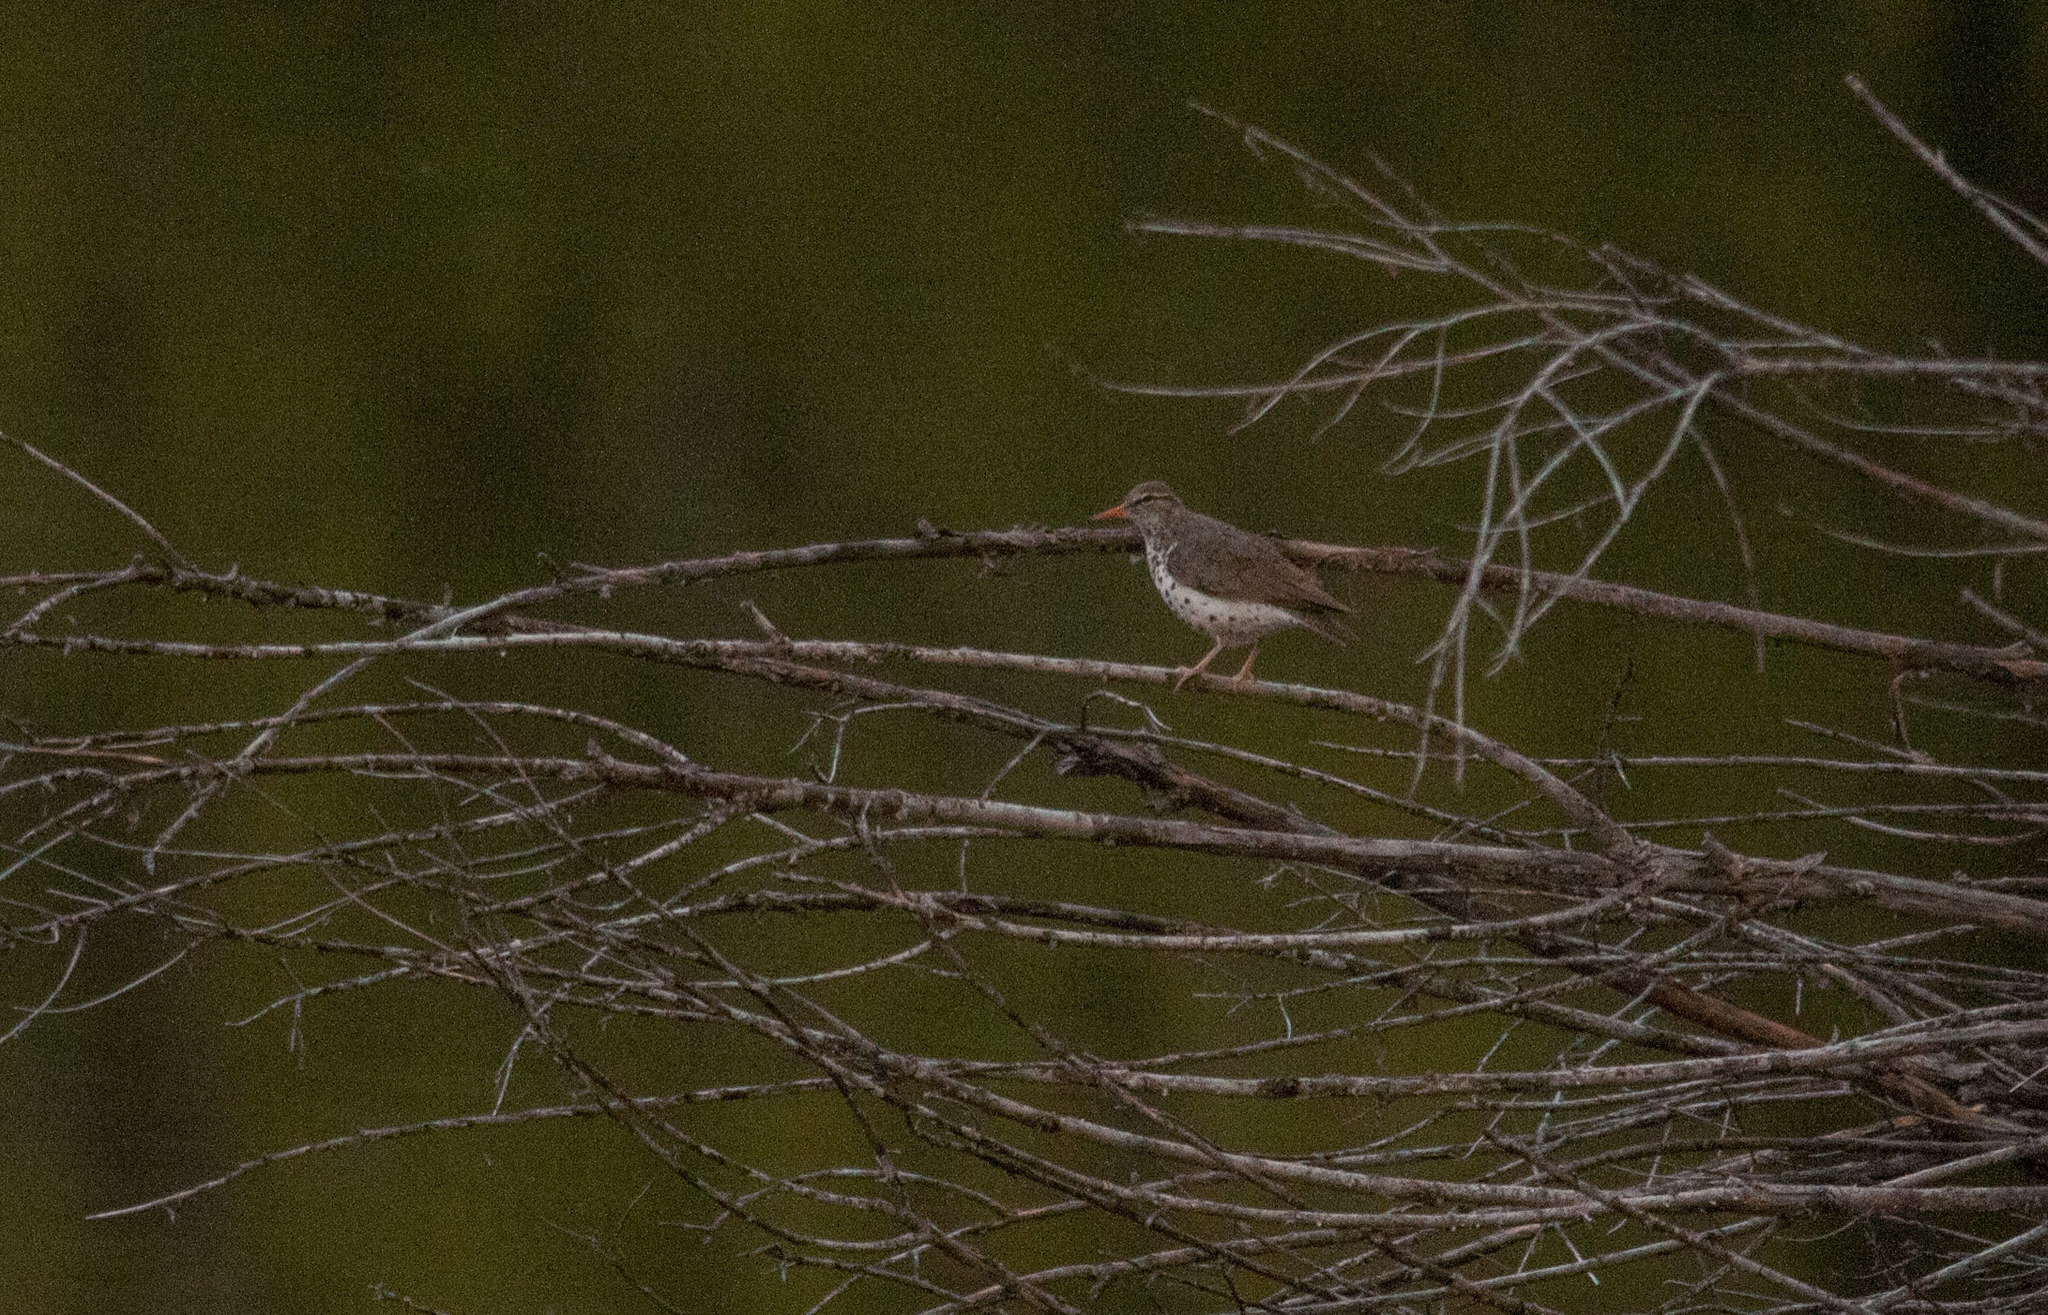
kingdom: Animalia
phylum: Chordata
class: Aves
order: Charadriiformes
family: Scolopacidae
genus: Actitis
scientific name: Actitis macularius
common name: Spotted sandpiper
